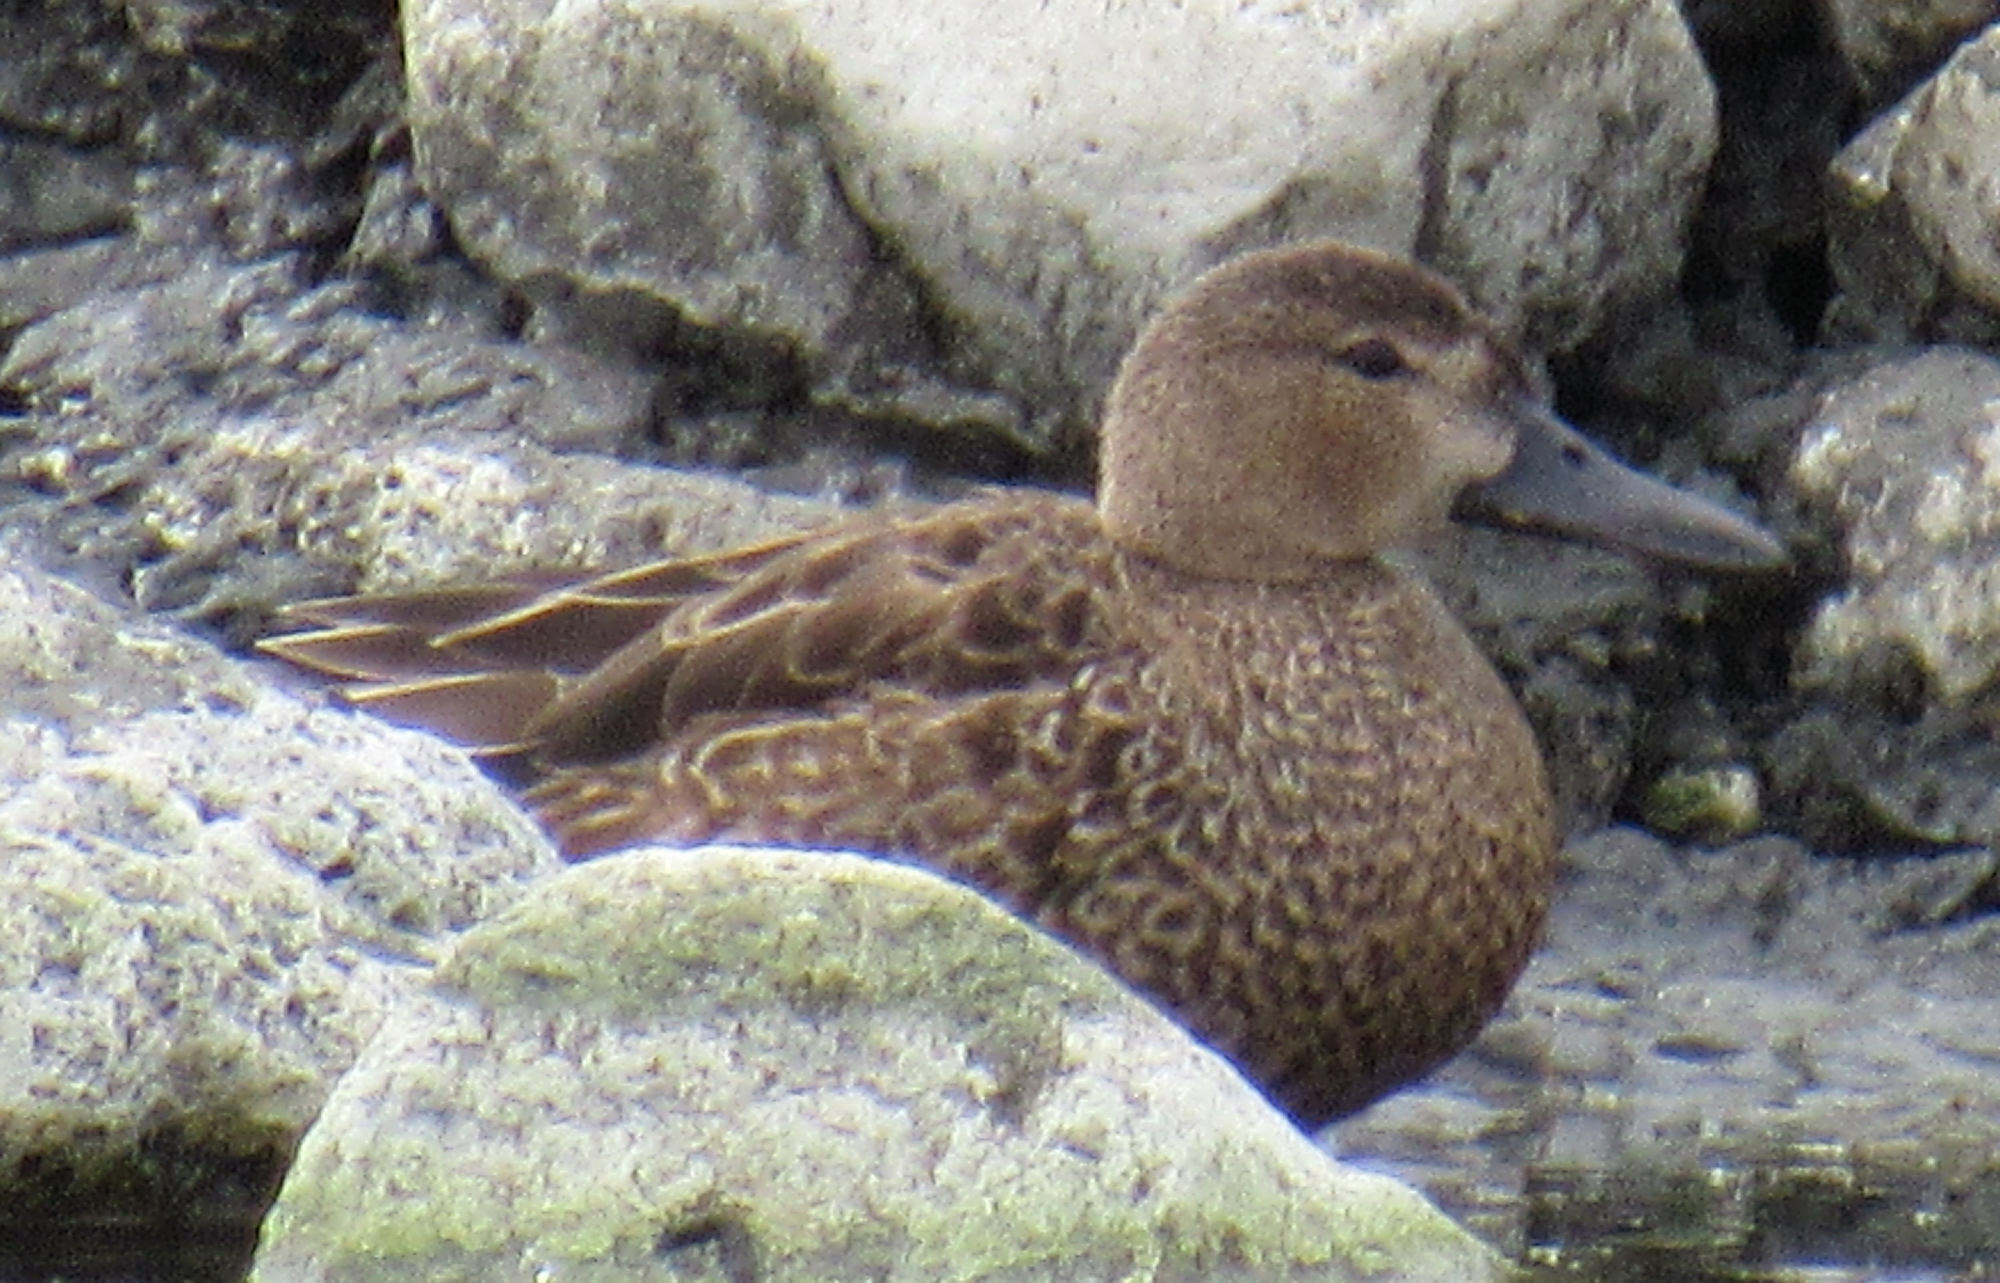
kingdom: Animalia
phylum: Chordata
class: Aves
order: Anseriformes
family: Anatidae
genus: Spatula
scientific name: Spatula cyanoptera
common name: Cinnamon teal
